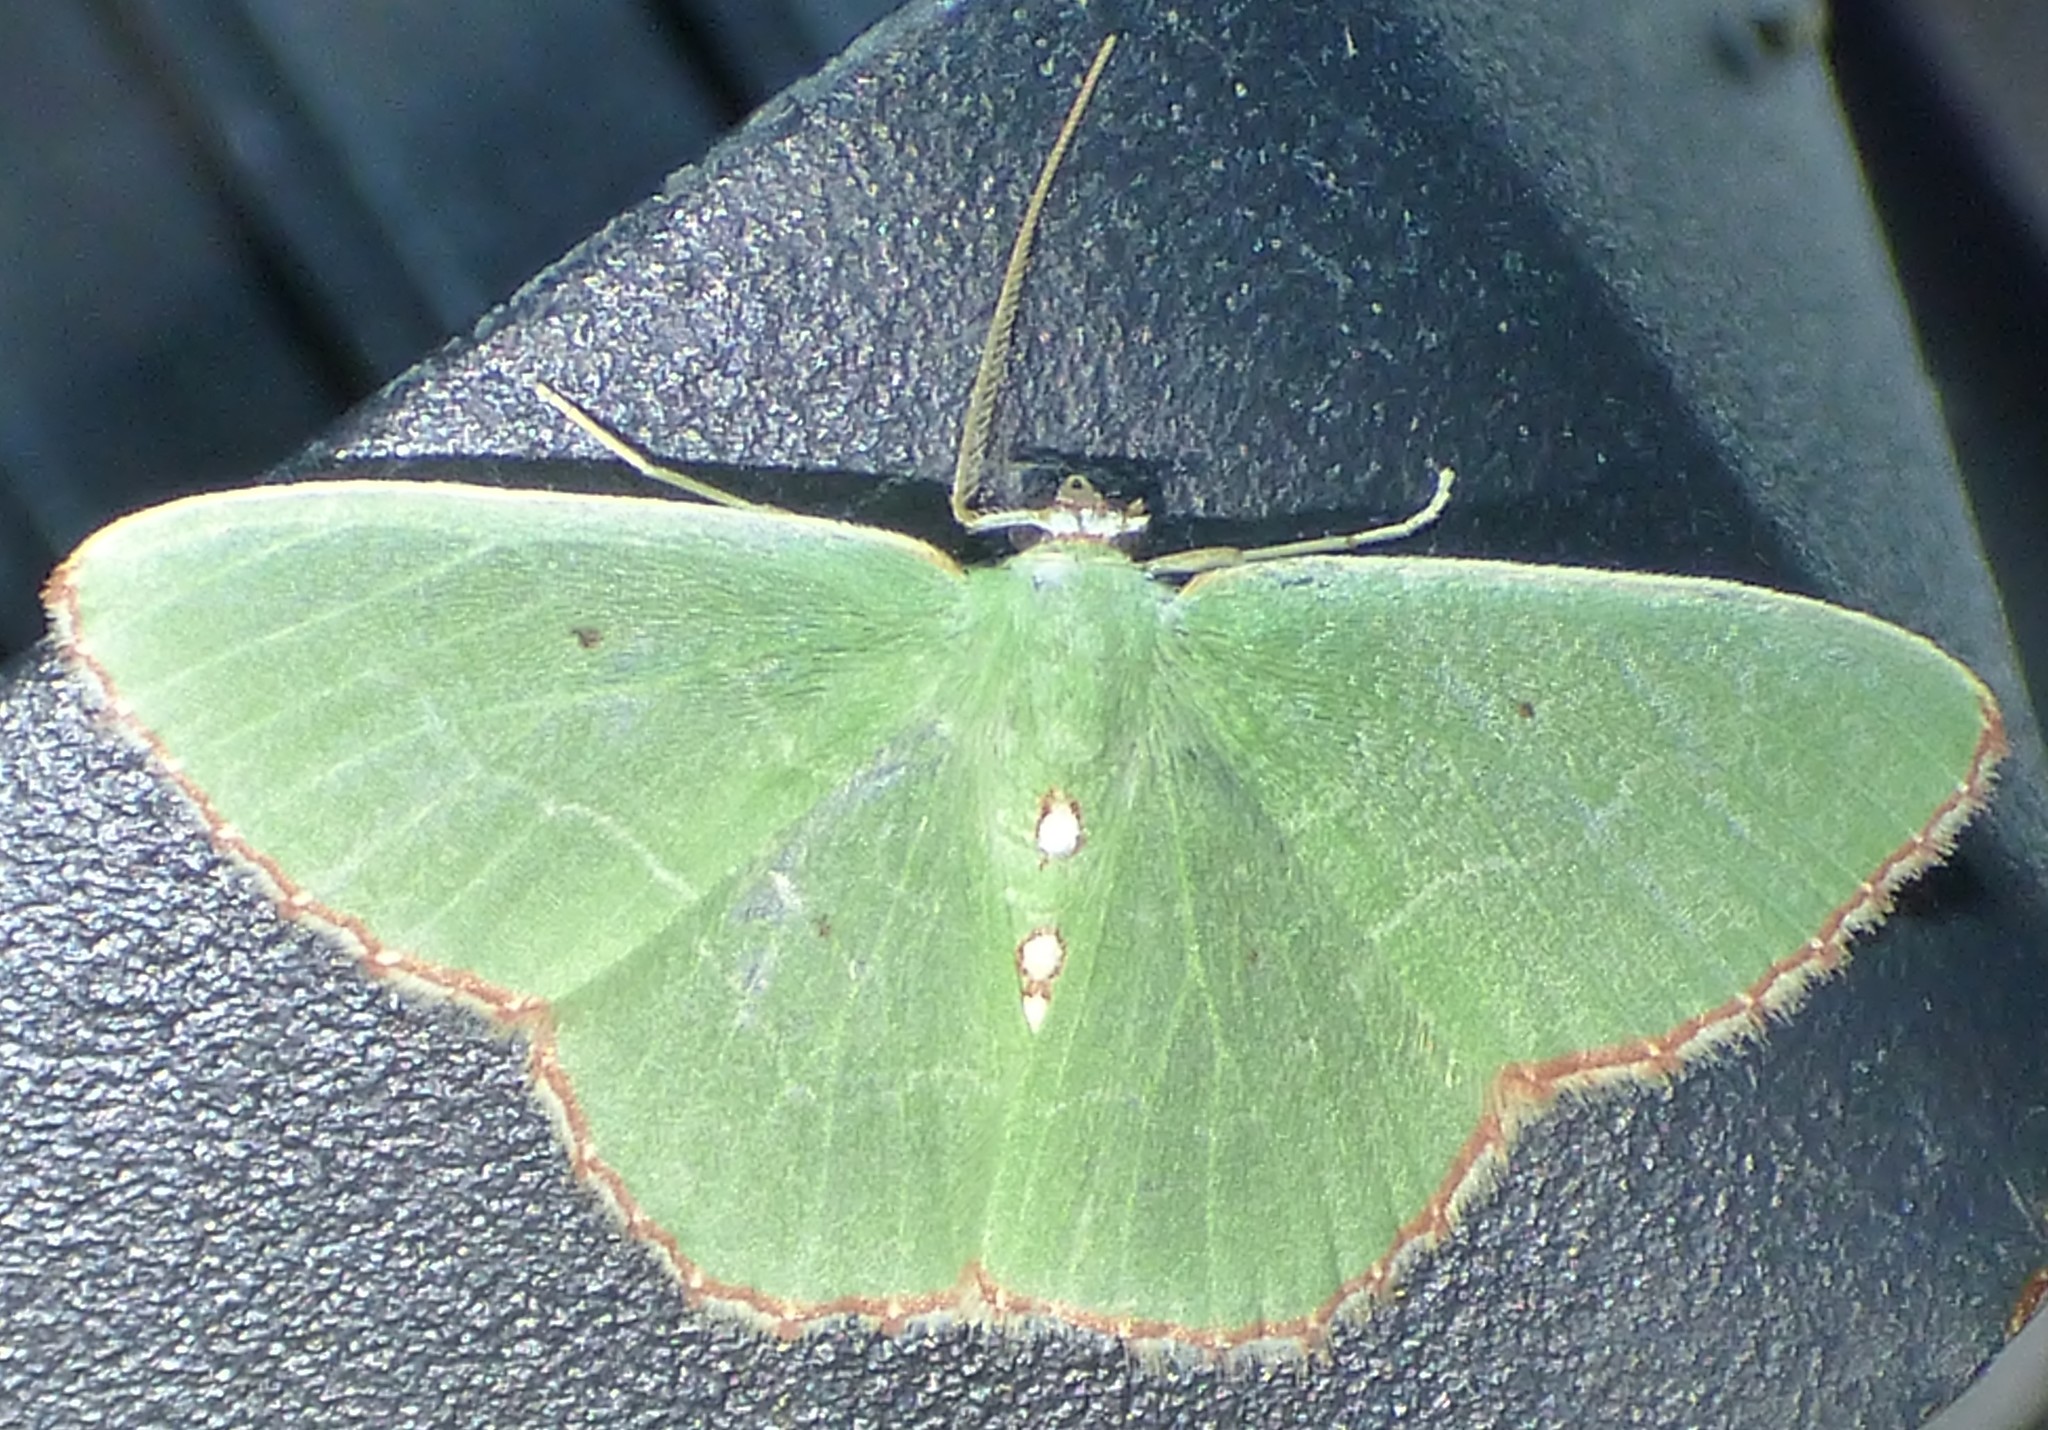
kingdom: Animalia
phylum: Arthropoda
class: Insecta
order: Lepidoptera
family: Geometridae
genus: Nemoria
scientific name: Nemoria lixaria
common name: Red-bordered emerald
